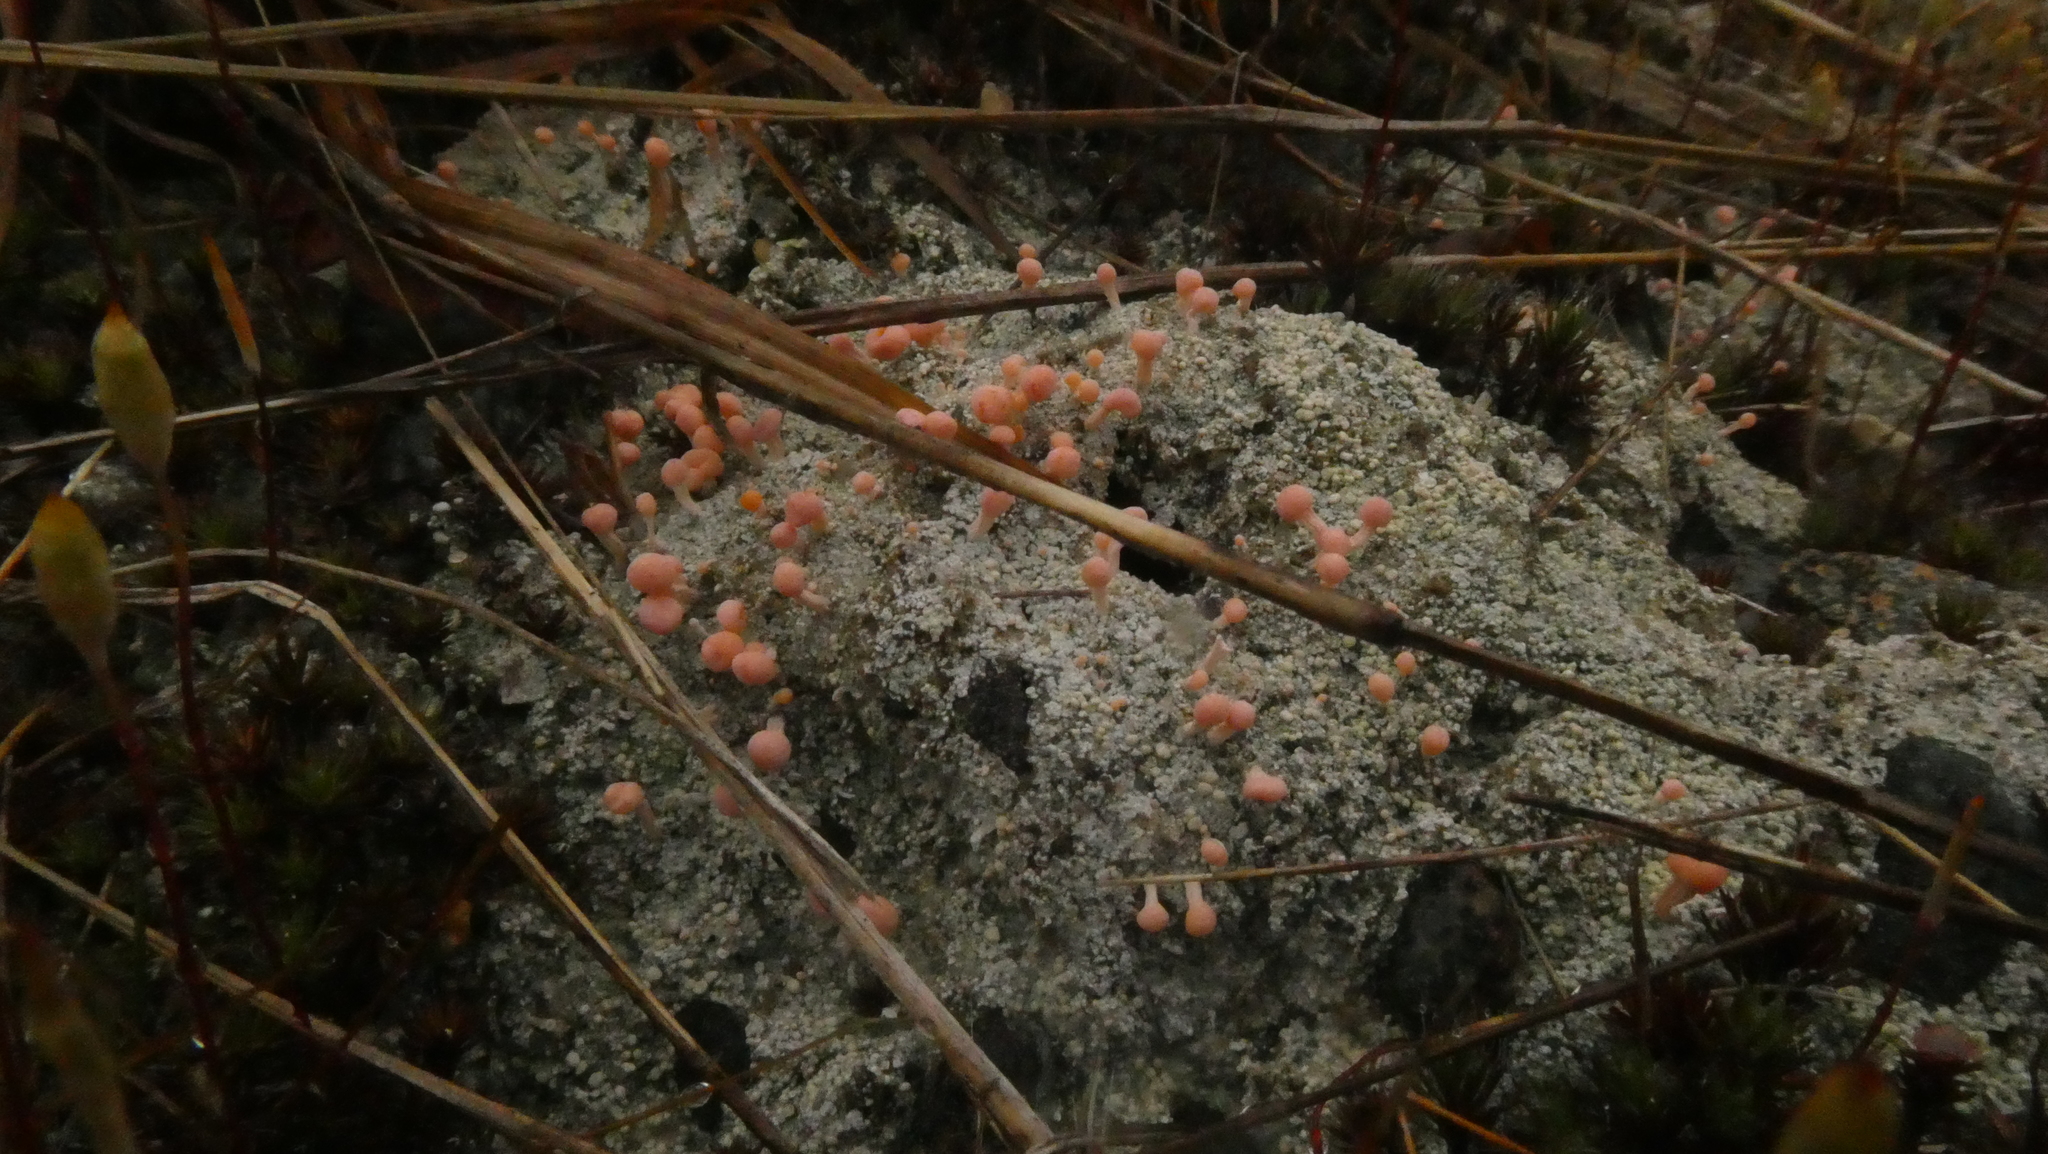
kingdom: Fungi
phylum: Ascomycota
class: Lecanoromycetes
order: Pertusariales
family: Icmadophilaceae
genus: Dibaeis
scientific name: Dibaeis baeomyces
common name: Pink earth lichen
